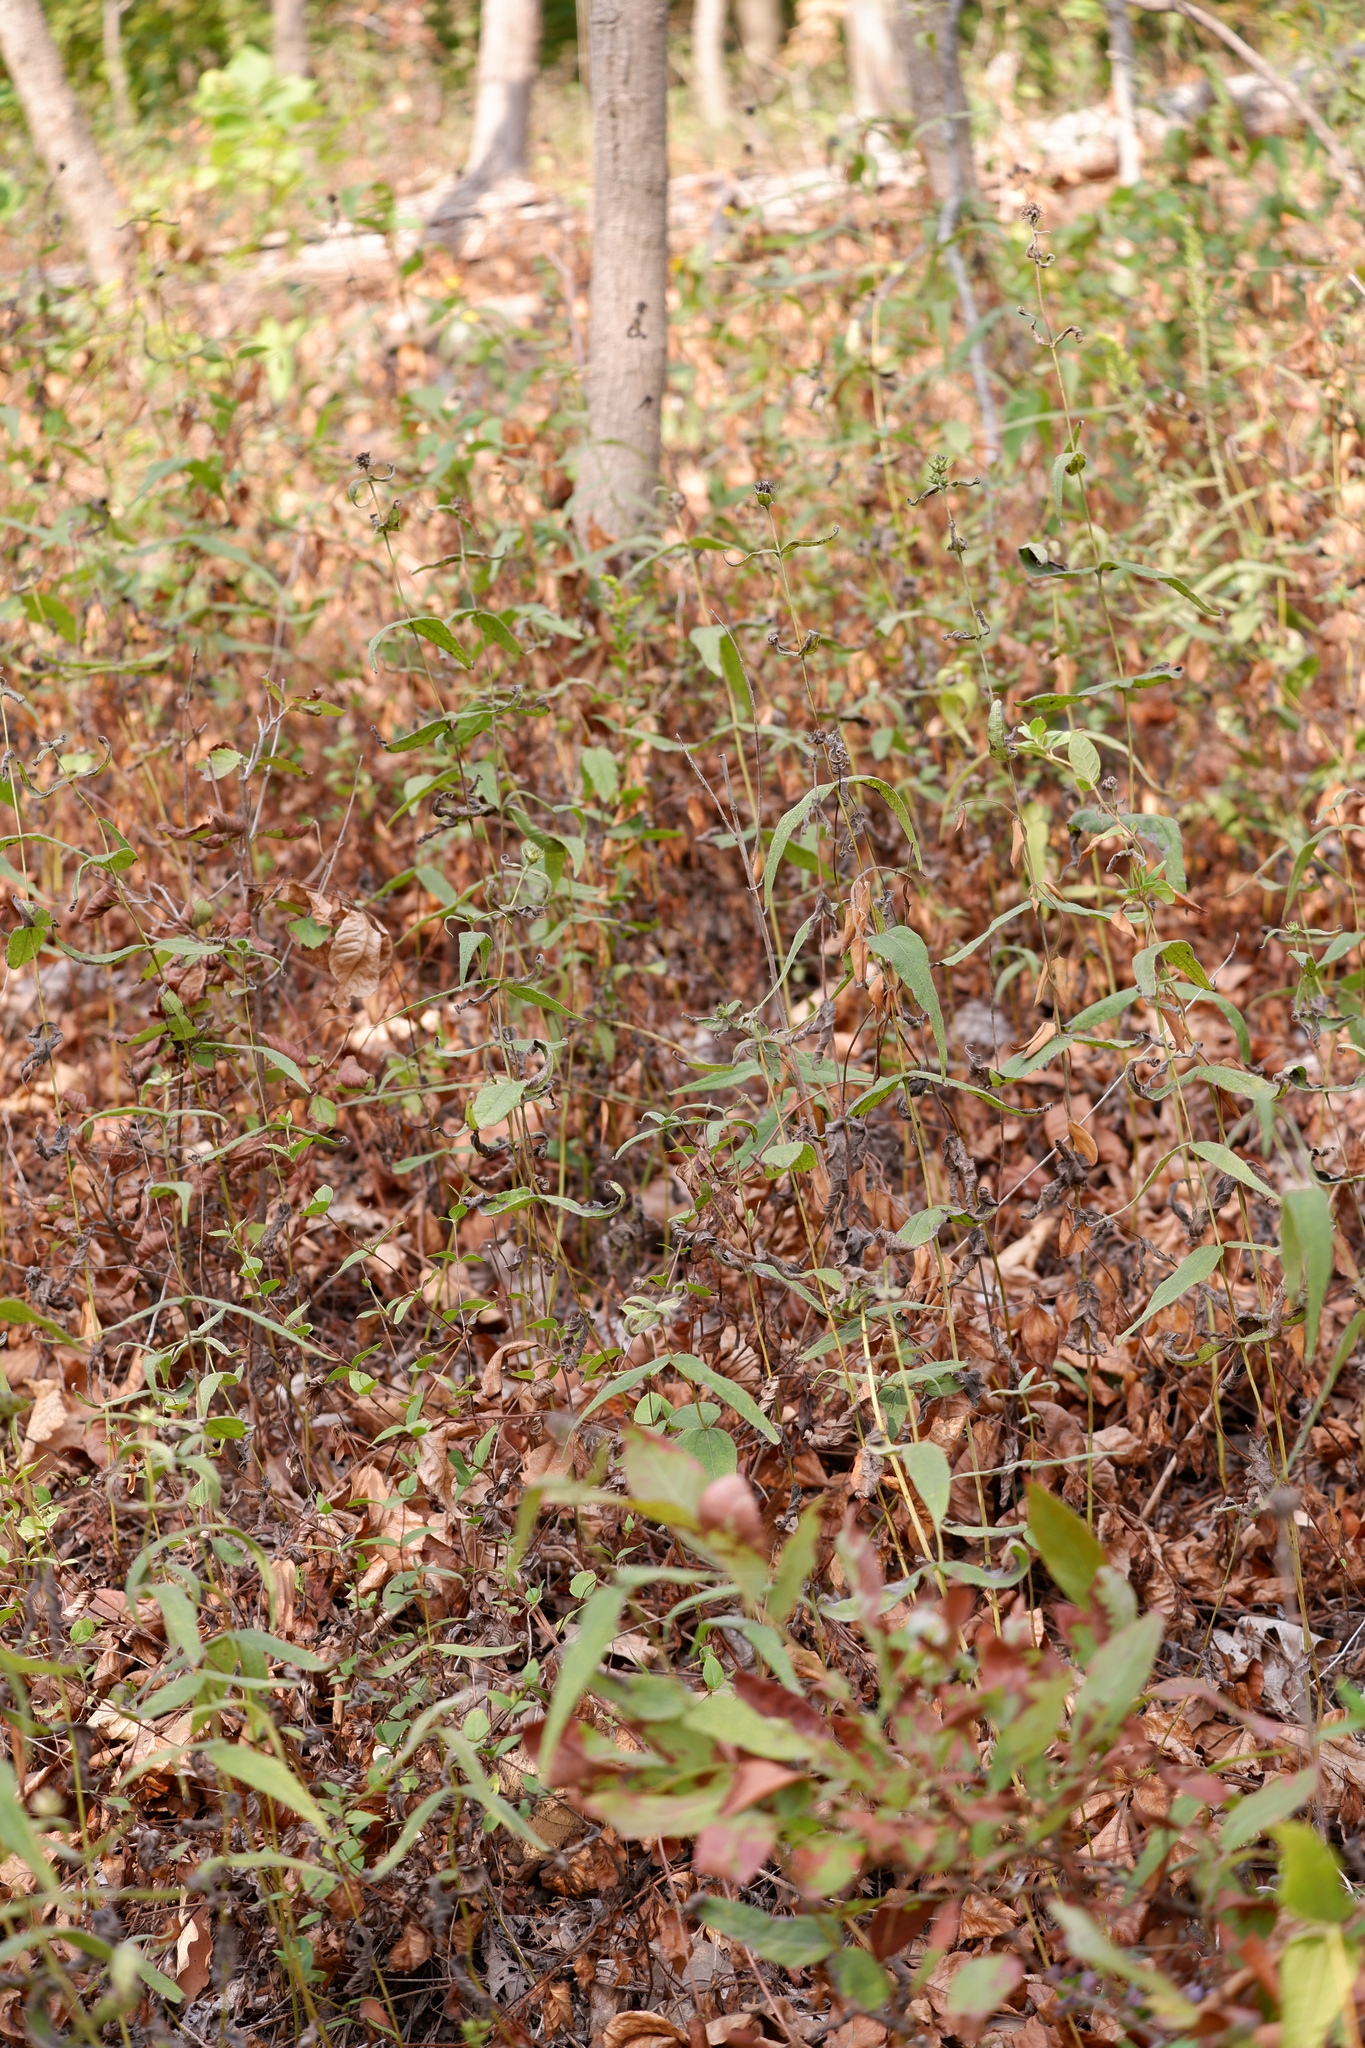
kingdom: Plantae
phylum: Tracheophyta
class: Magnoliopsida
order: Asterales
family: Asteraceae
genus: Helianthus
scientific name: Helianthus divaricatus
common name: Divergent sunflower
